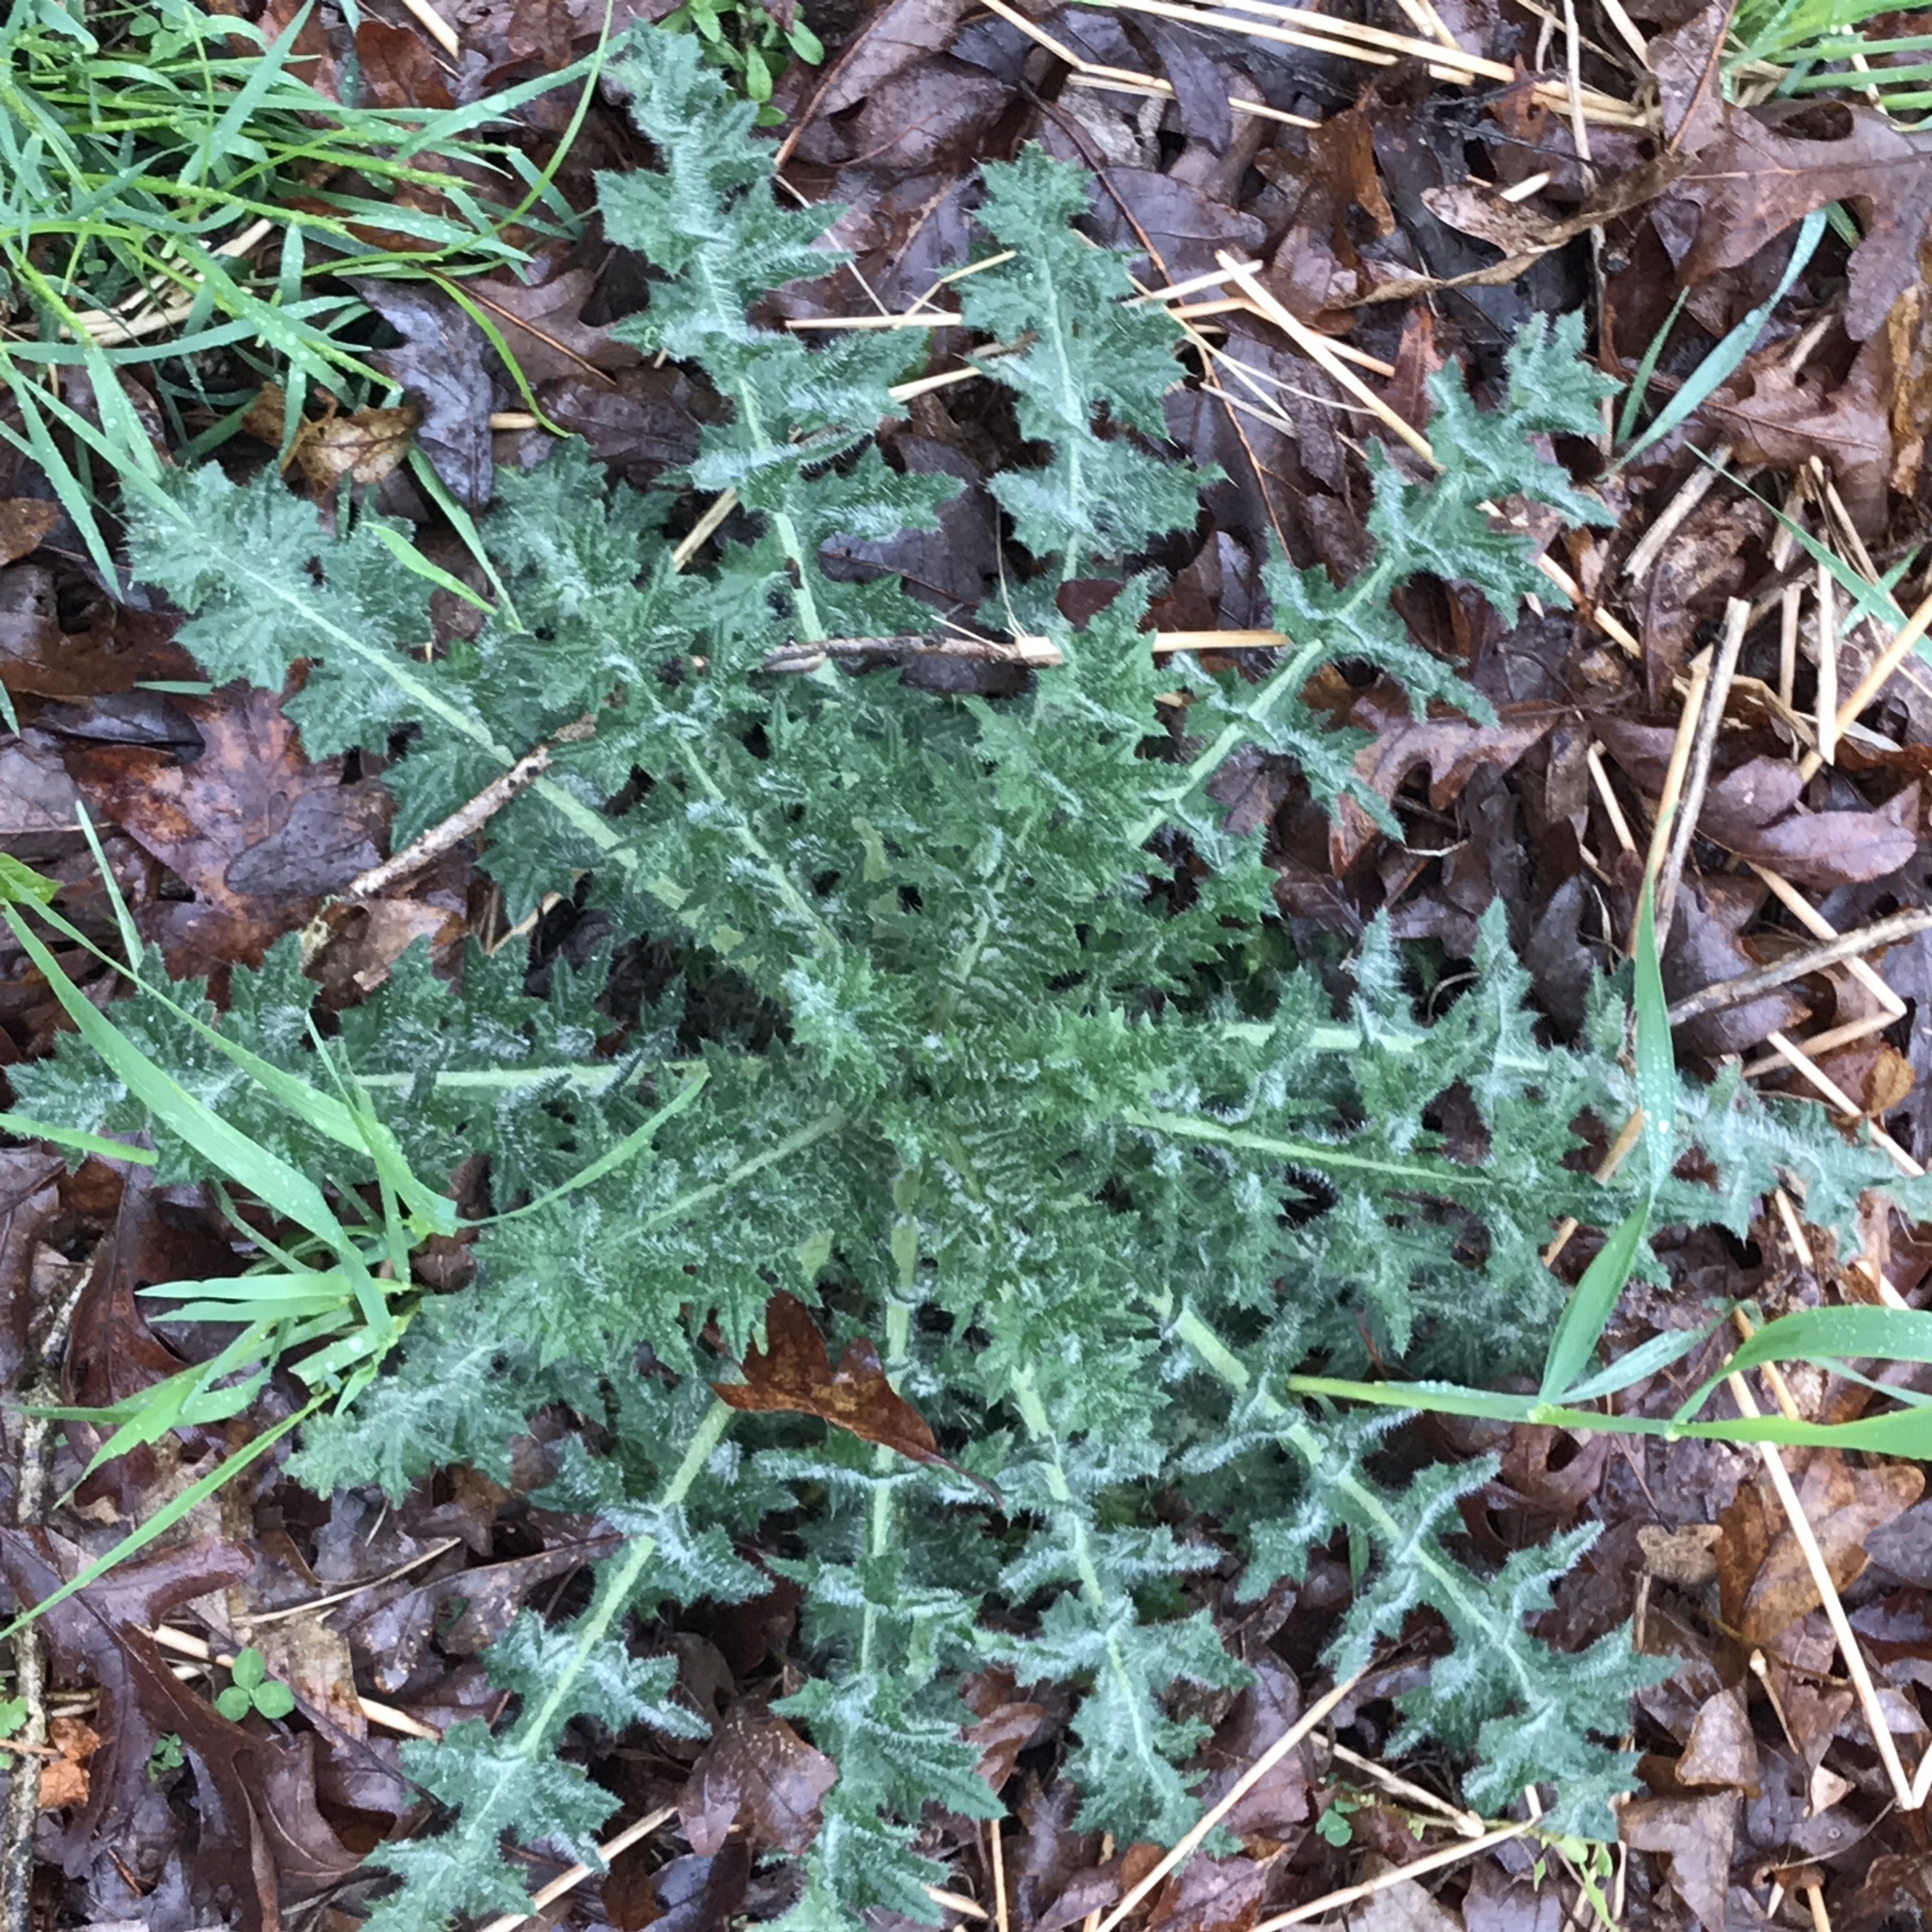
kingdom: Plantae
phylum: Tracheophyta
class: Magnoliopsida
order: Asterales
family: Asteraceae
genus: Cirsium
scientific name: Cirsium vulgare
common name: Bull thistle
